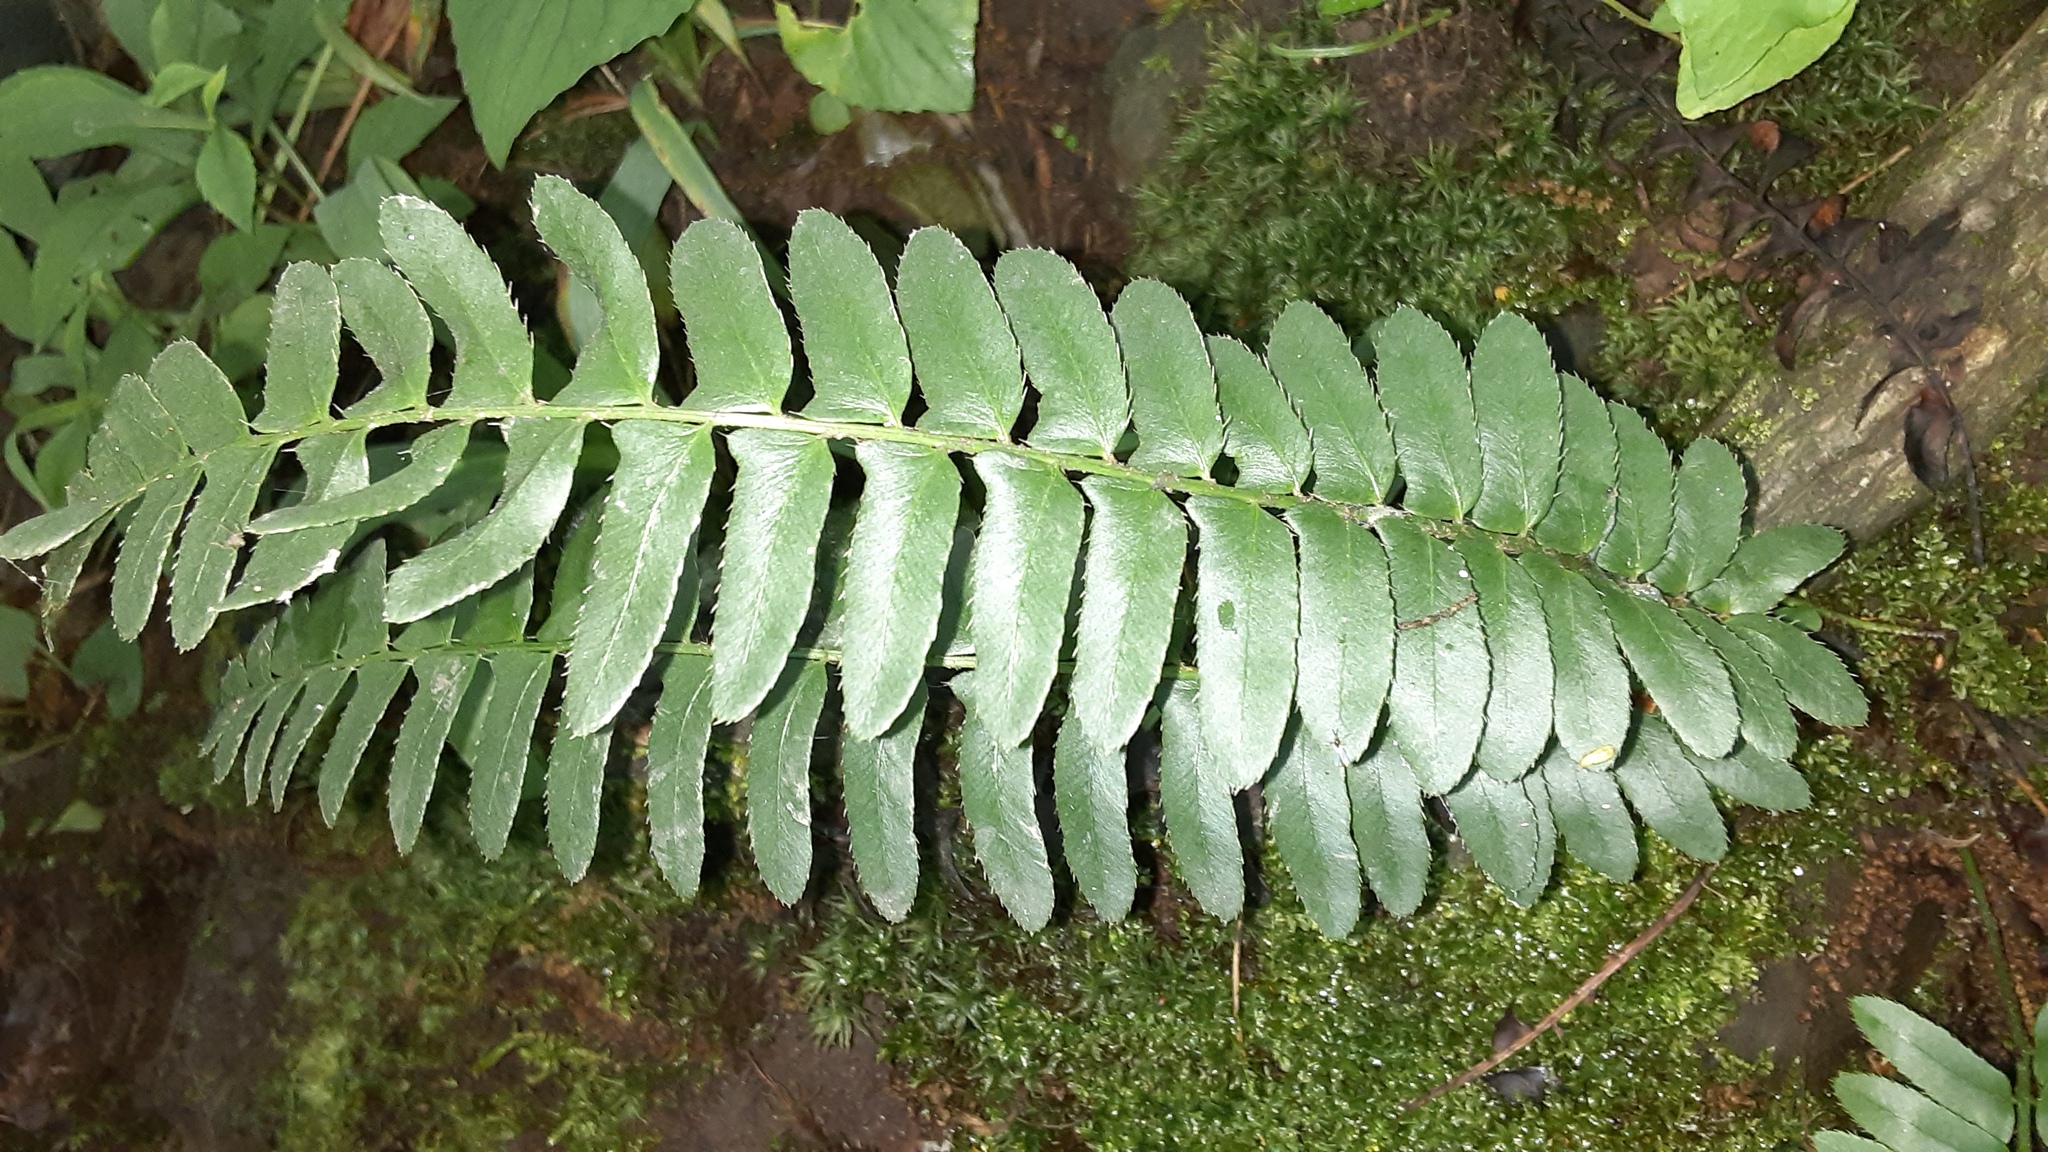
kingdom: Plantae
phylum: Tracheophyta
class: Polypodiopsida
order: Polypodiales
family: Dryopteridaceae
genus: Polystichum
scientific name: Polystichum acrostichoides
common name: Christmas fern
